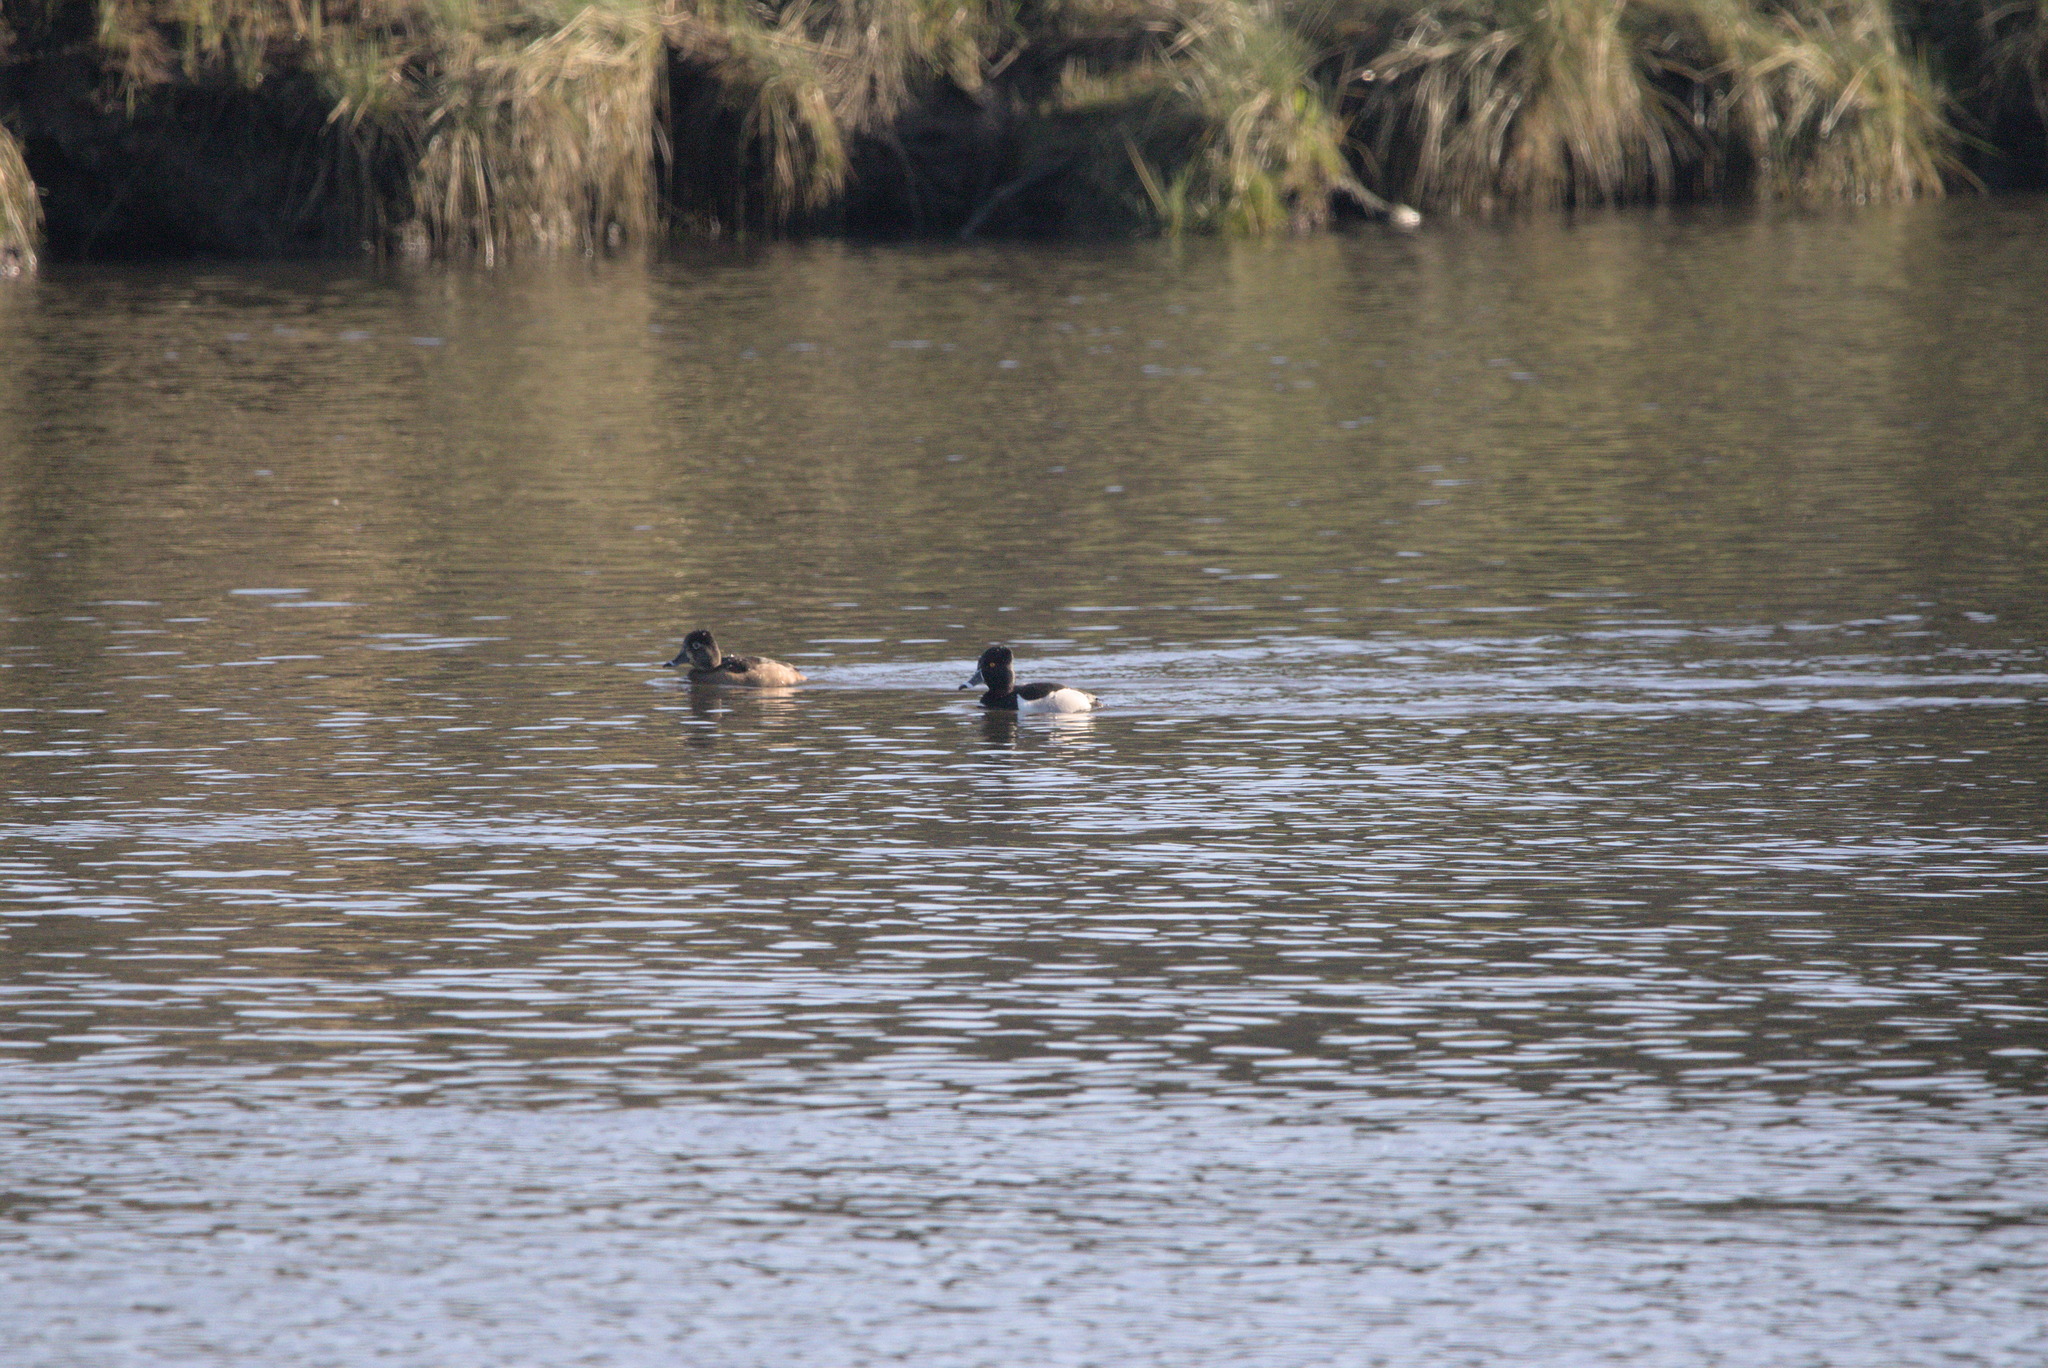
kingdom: Animalia
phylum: Chordata
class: Aves
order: Anseriformes
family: Anatidae
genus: Aythya
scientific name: Aythya collaris
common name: Ring-necked duck
